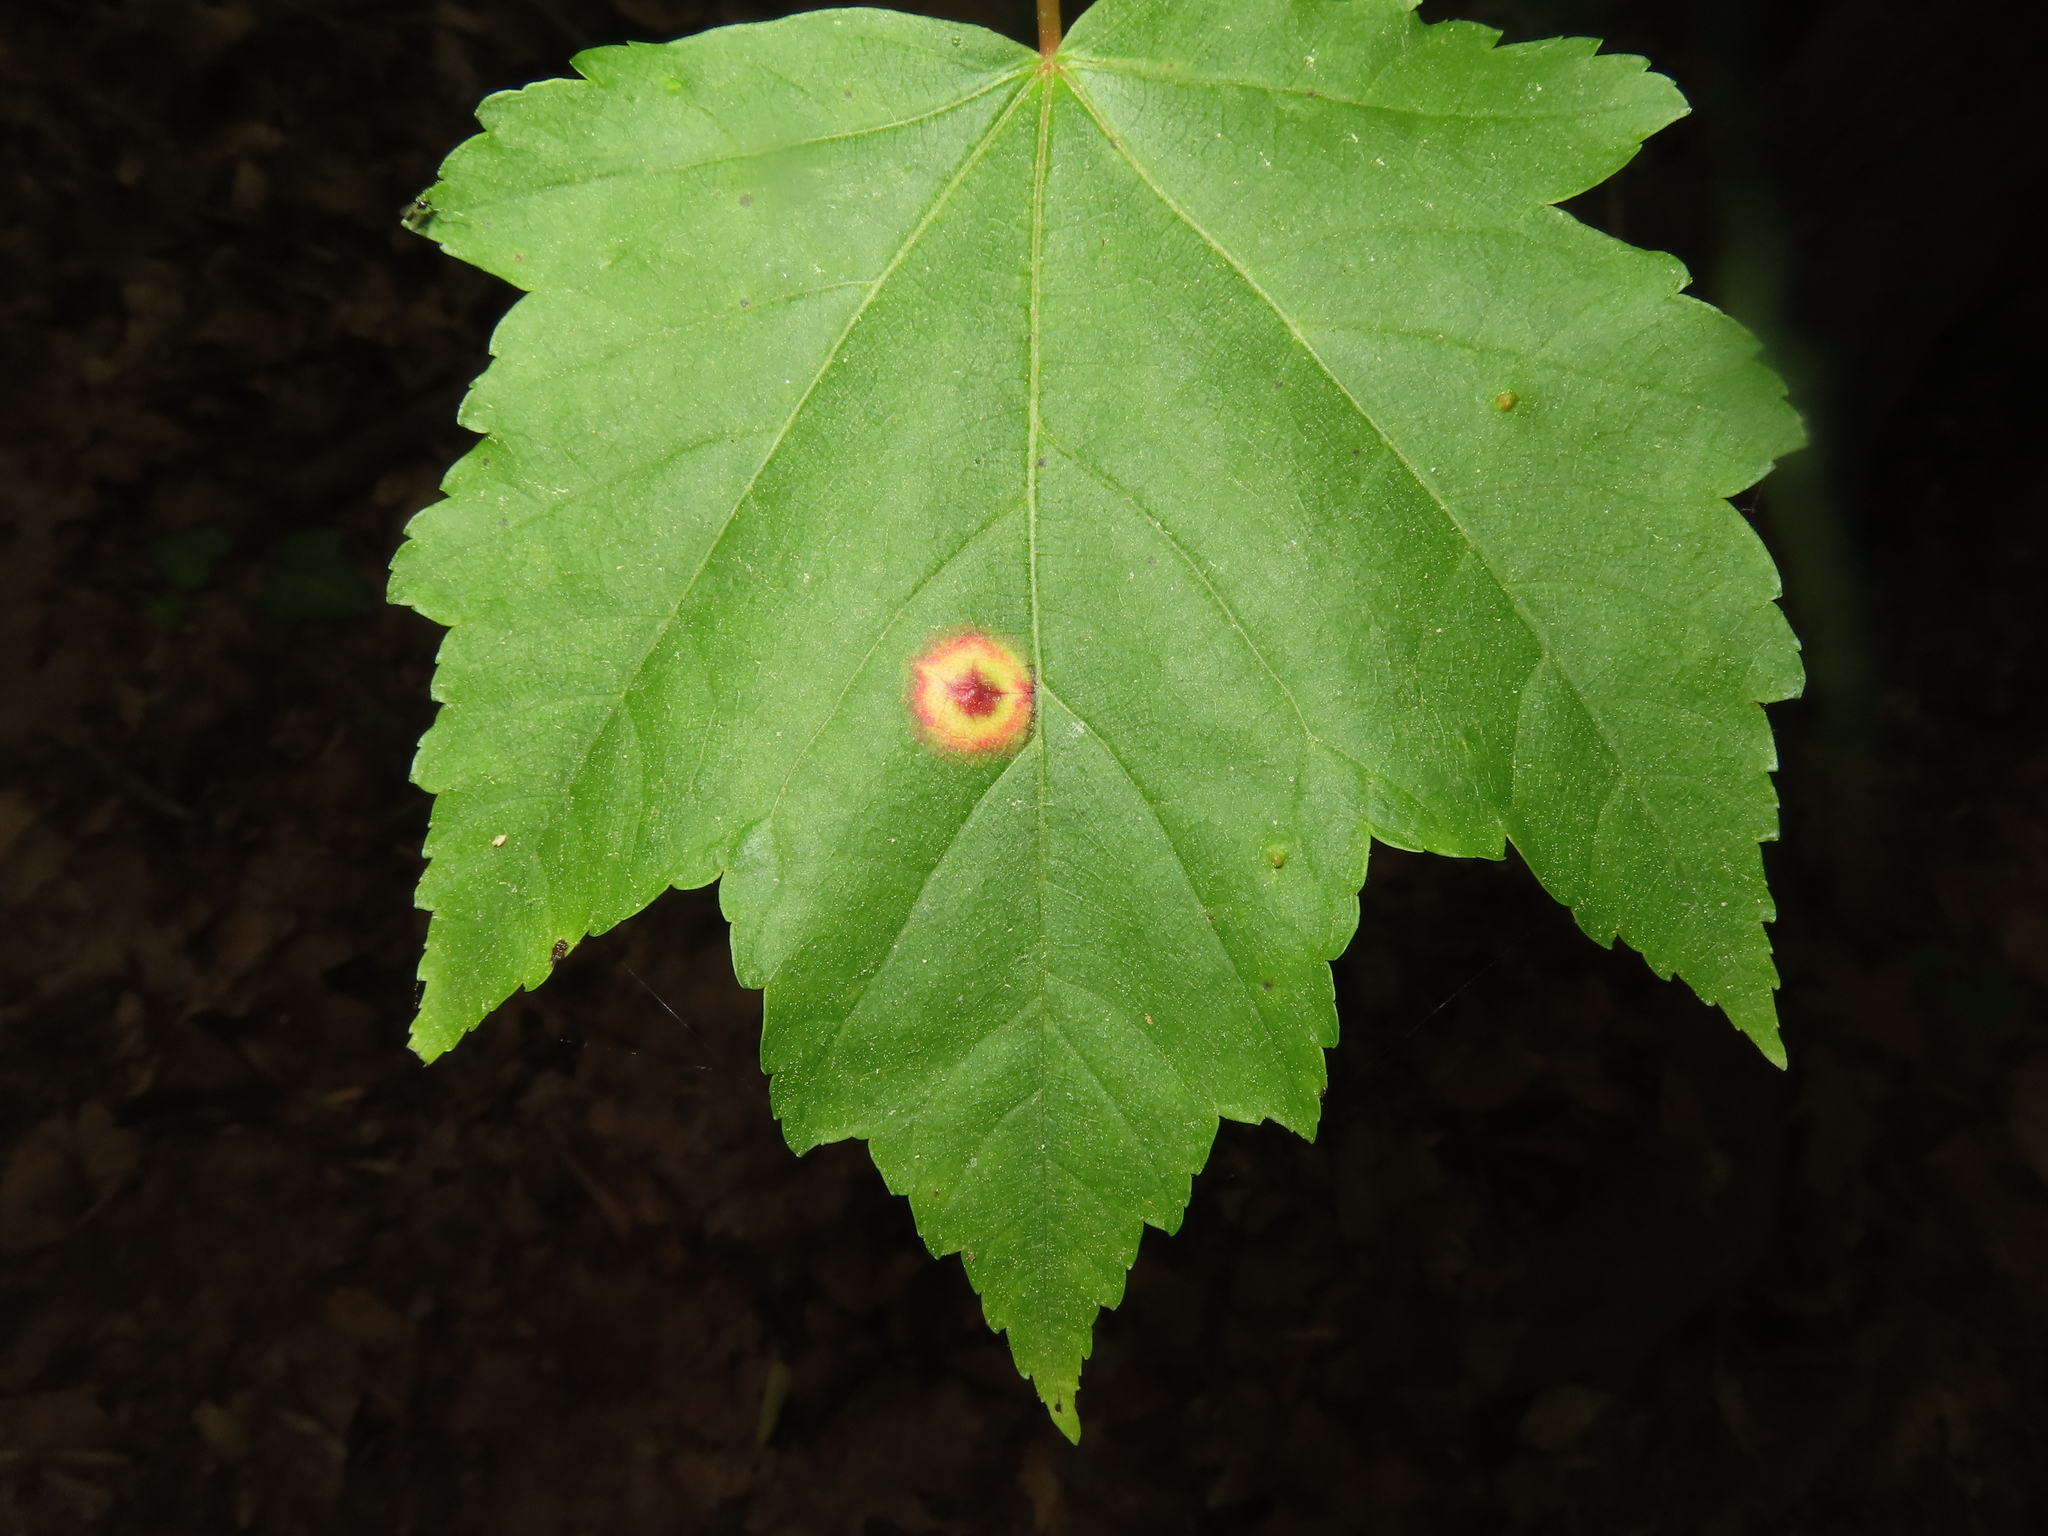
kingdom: Animalia
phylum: Arthropoda
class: Insecta
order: Diptera
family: Cecidomyiidae
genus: Acericecis
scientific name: Acericecis ocellaris
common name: Ocellate gall midge
